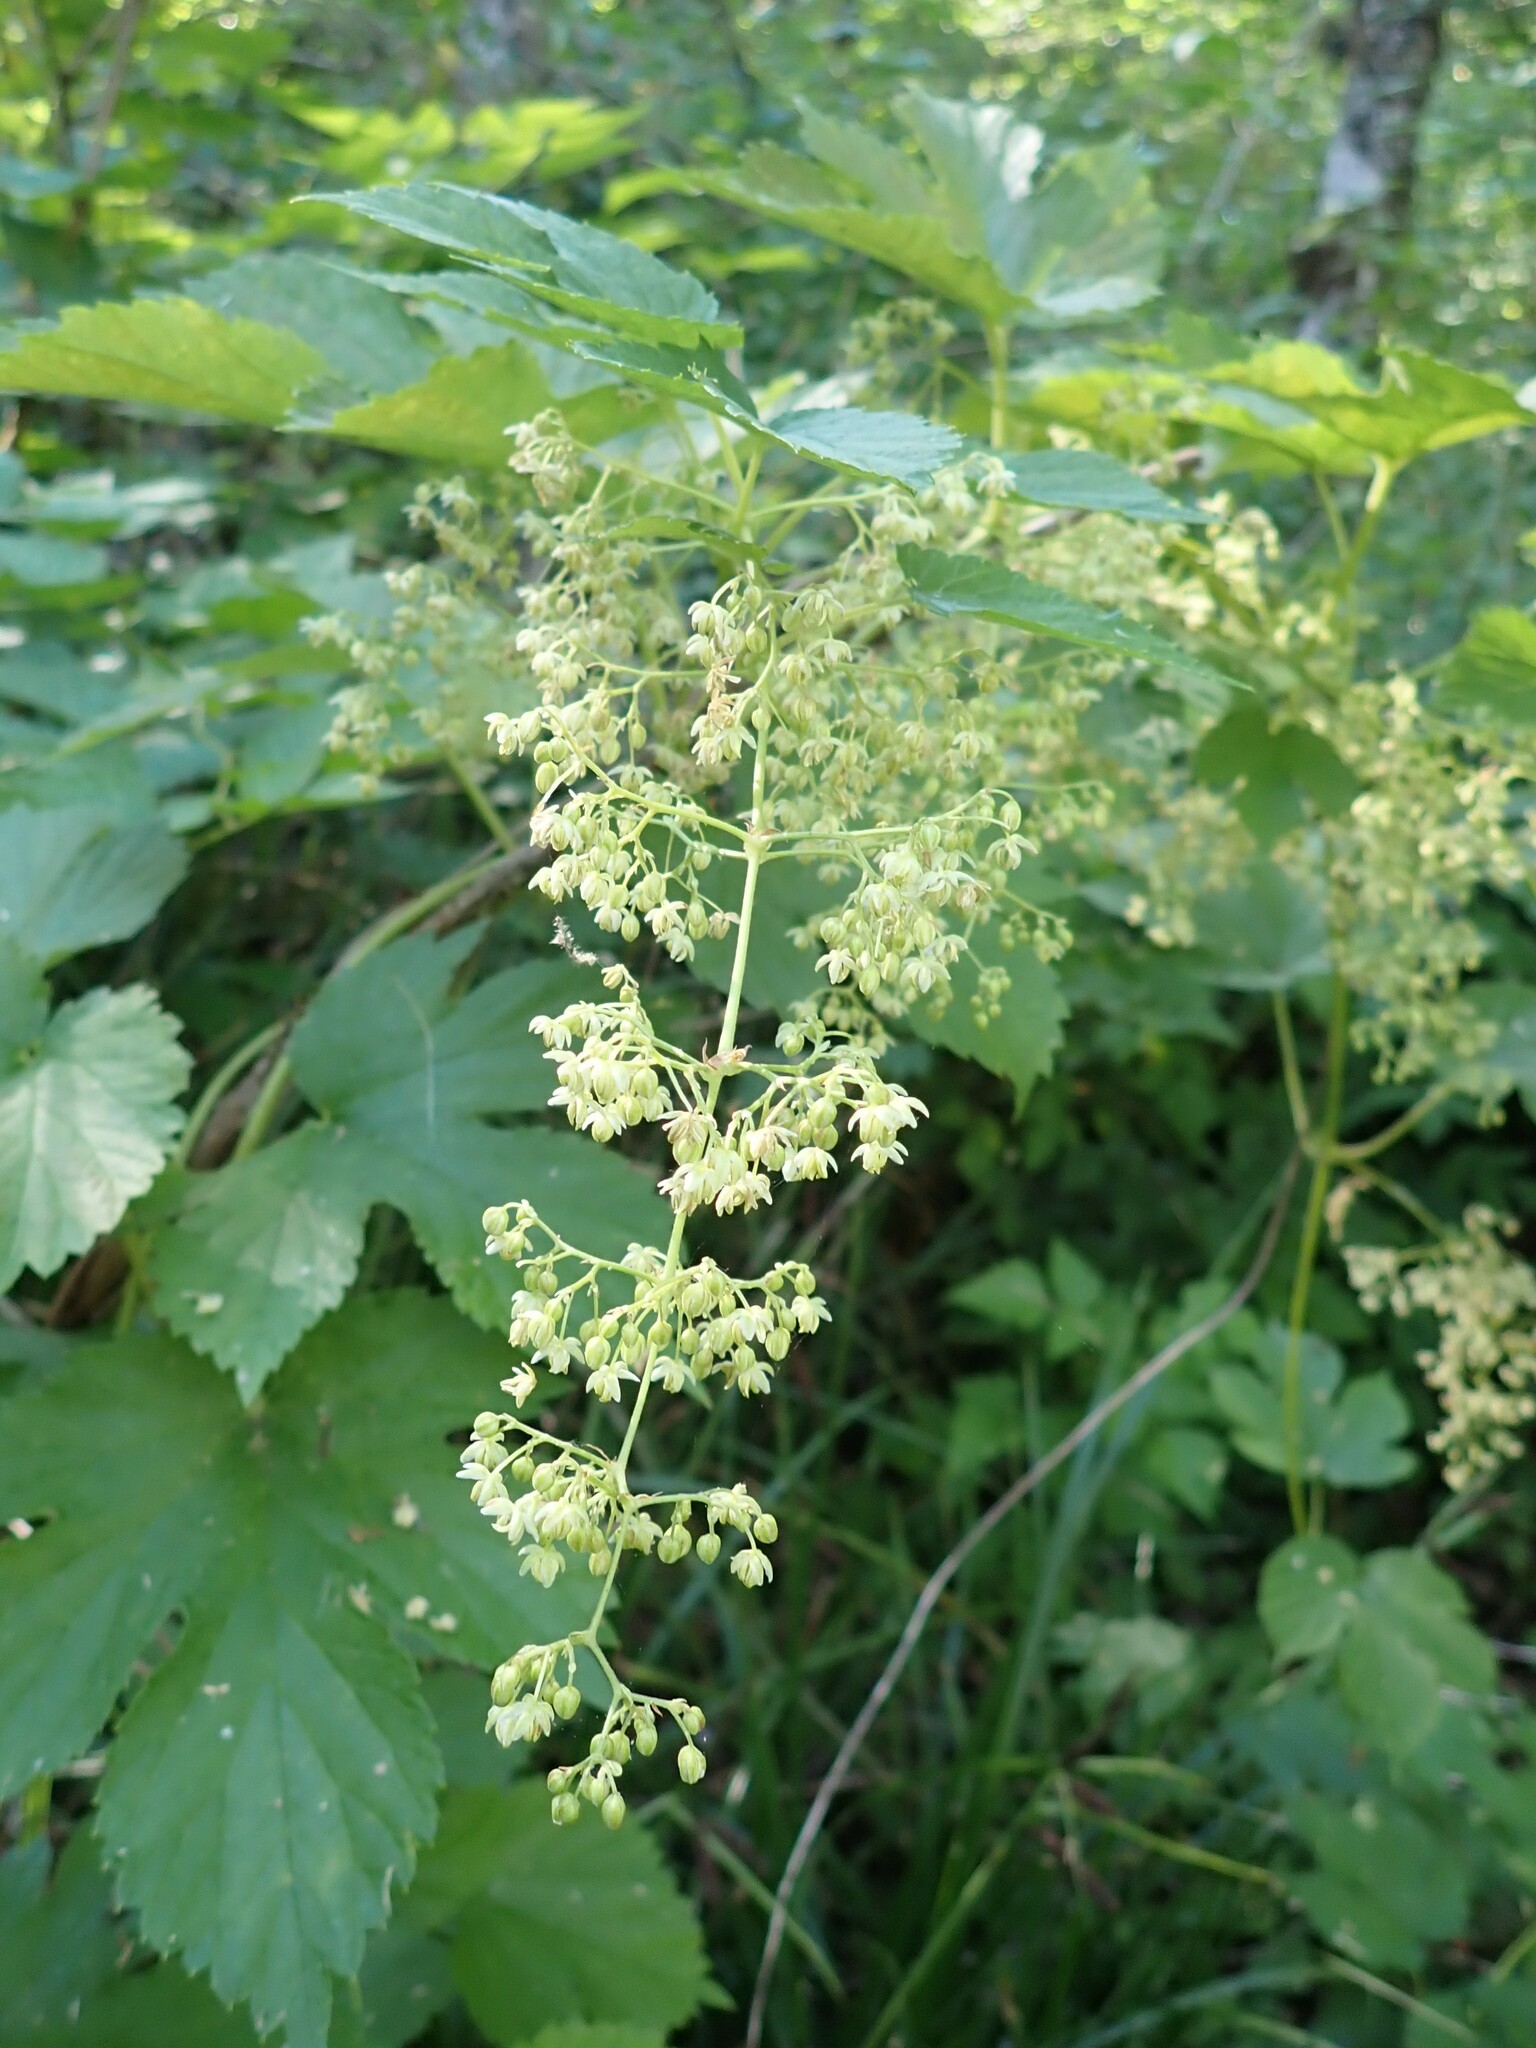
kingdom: Plantae
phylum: Tracheophyta
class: Magnoliopsida
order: Rosales
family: Cannabaceae
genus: Humulus
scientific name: Humulus lupulus
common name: Hop
